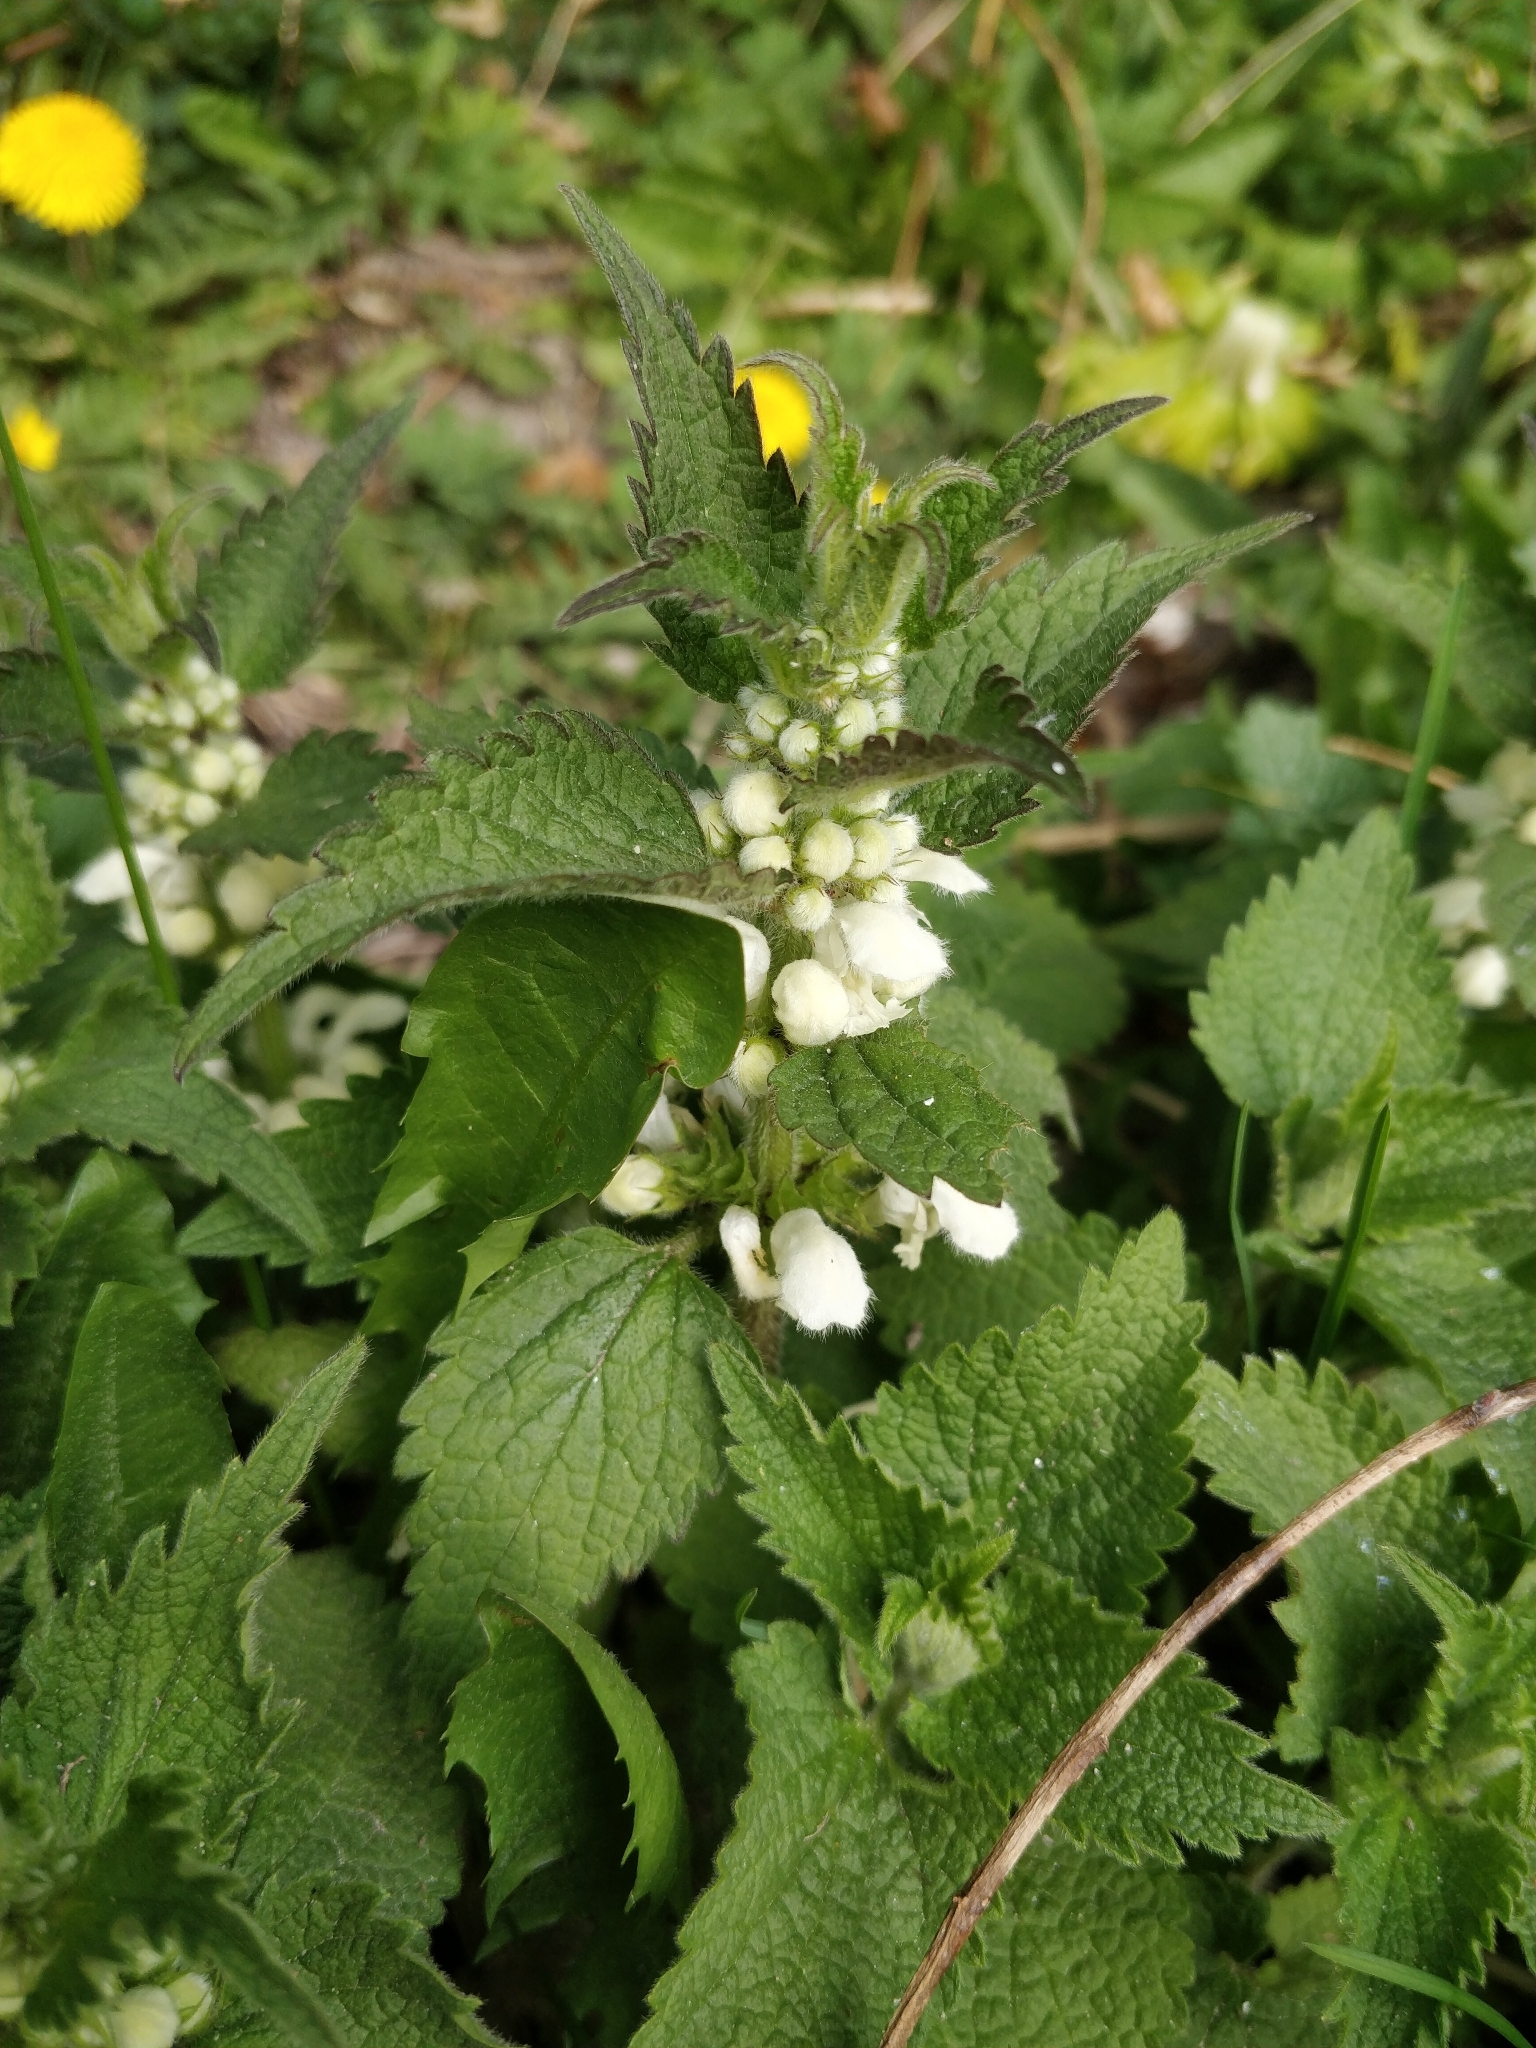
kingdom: Plantae
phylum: Tracheophyta
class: Magnoliopsida
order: Lamiales
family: Lamiaceae
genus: Lamium
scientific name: Lamium album
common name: White dead-nettle
